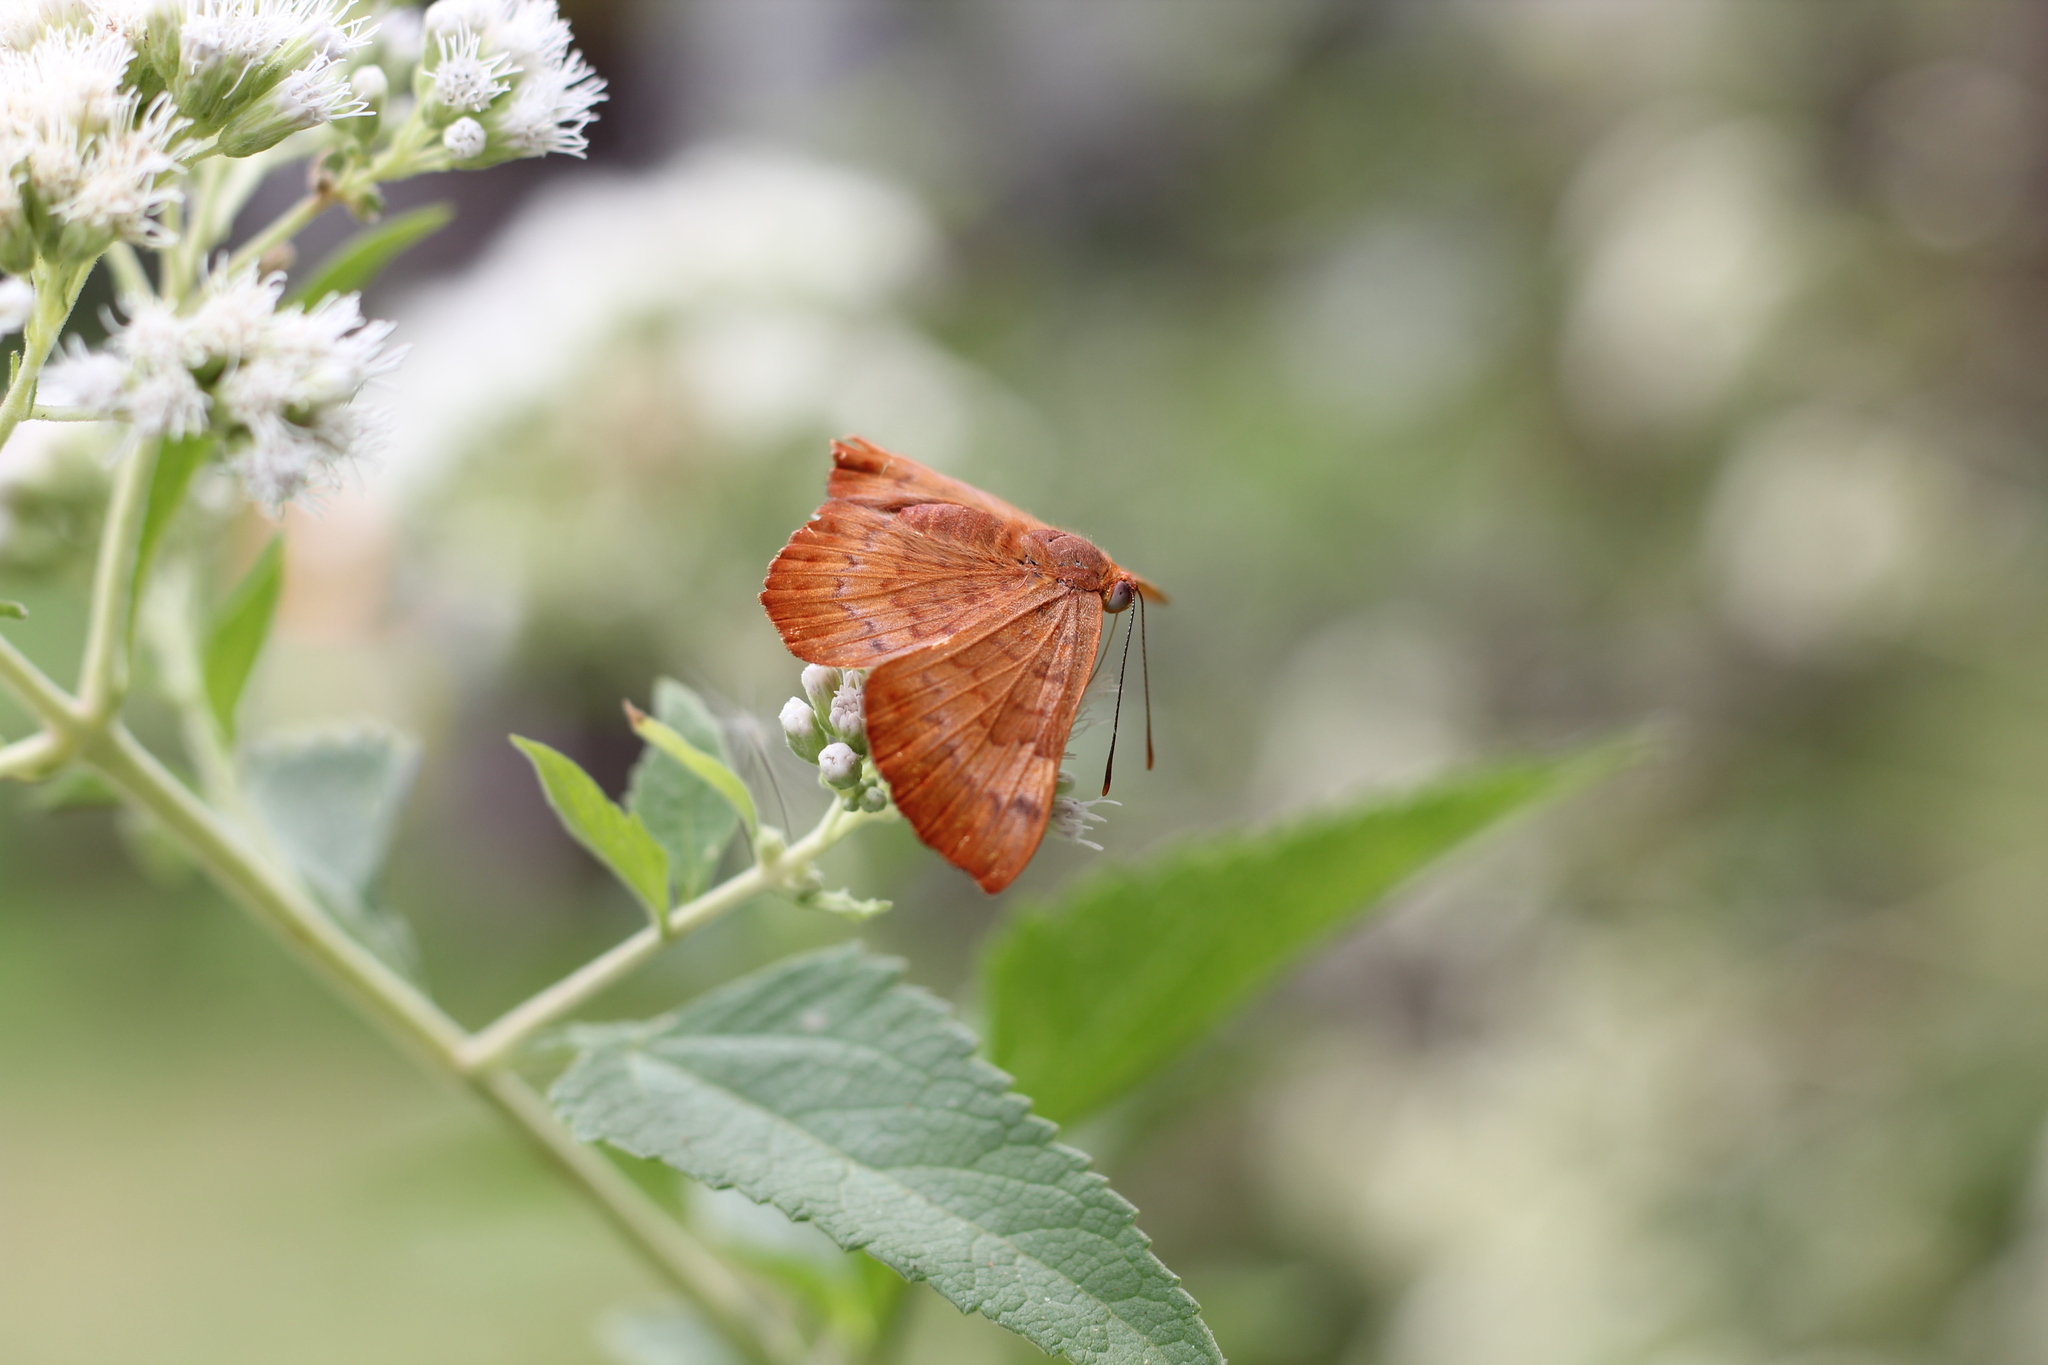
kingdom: Animalia
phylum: Arthropoda
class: Insecta
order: Lepidoptera
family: Lycaenidae
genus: Emesis
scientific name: Emesis russula
